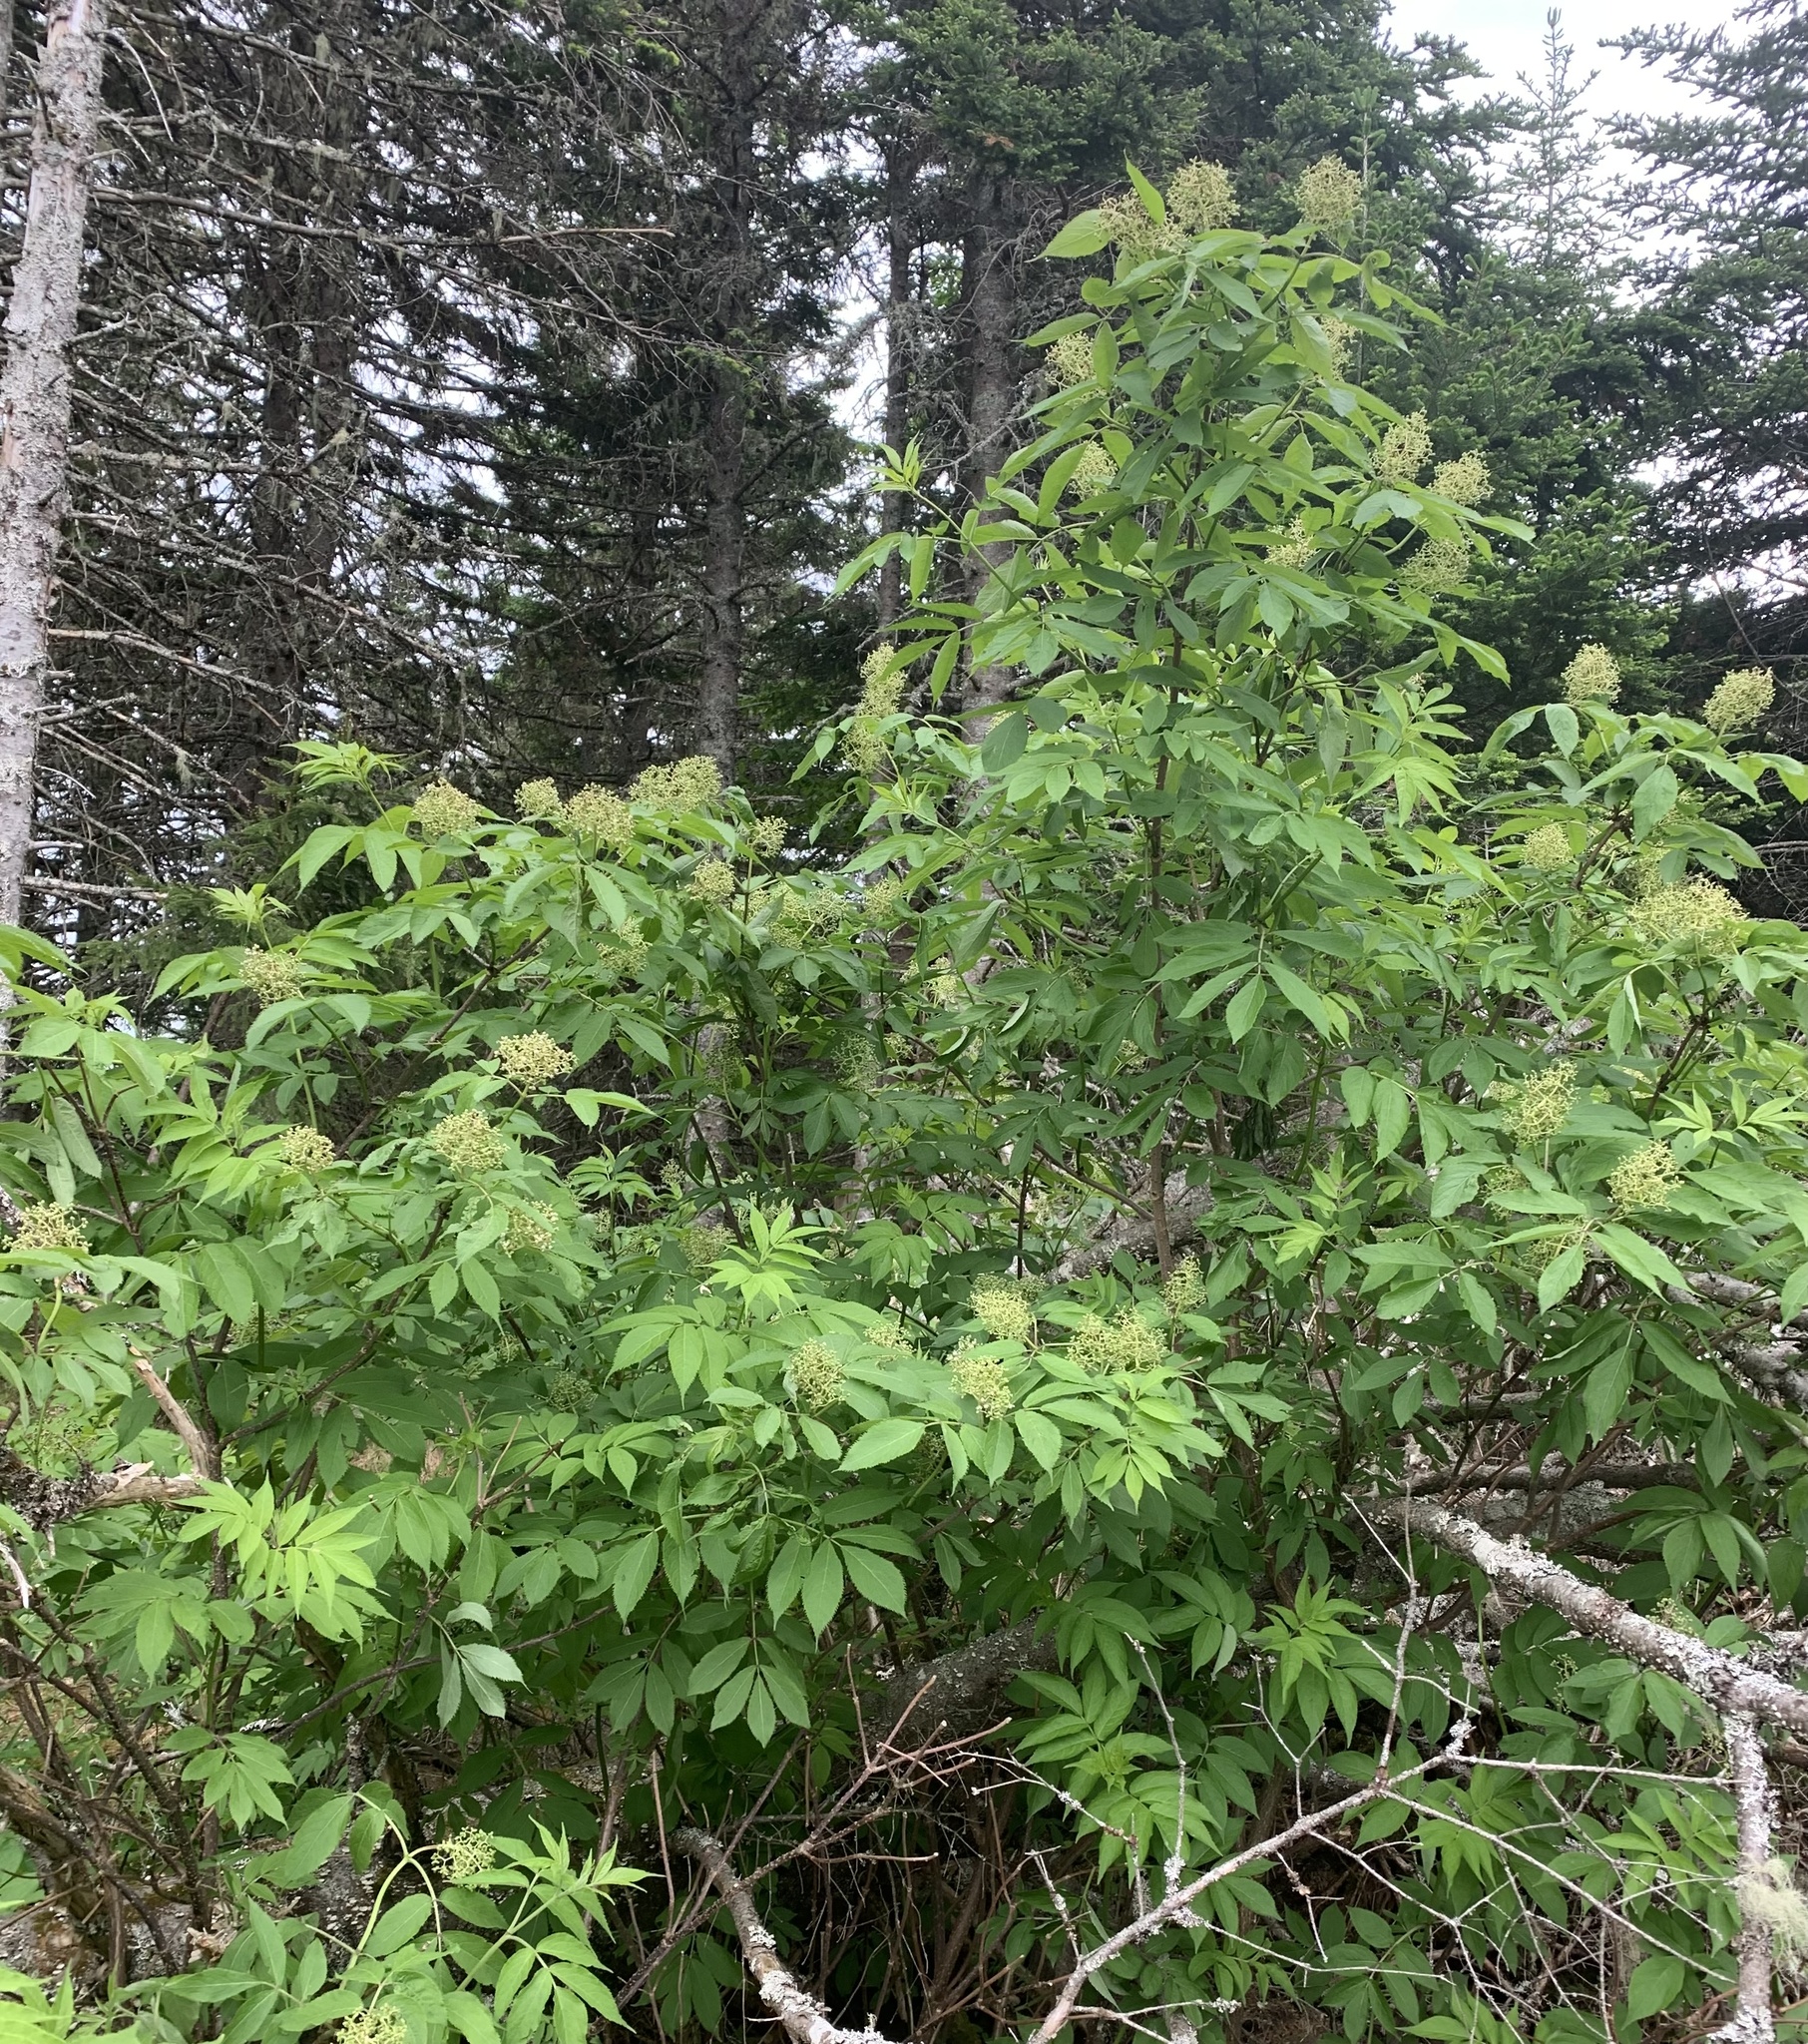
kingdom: Plantae
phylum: Tracheophyta
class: Magnoliopsida
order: Dipsacales
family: Viburnaceae
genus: Sambucus
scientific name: Sambucus racemosa
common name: Red-berried elder
